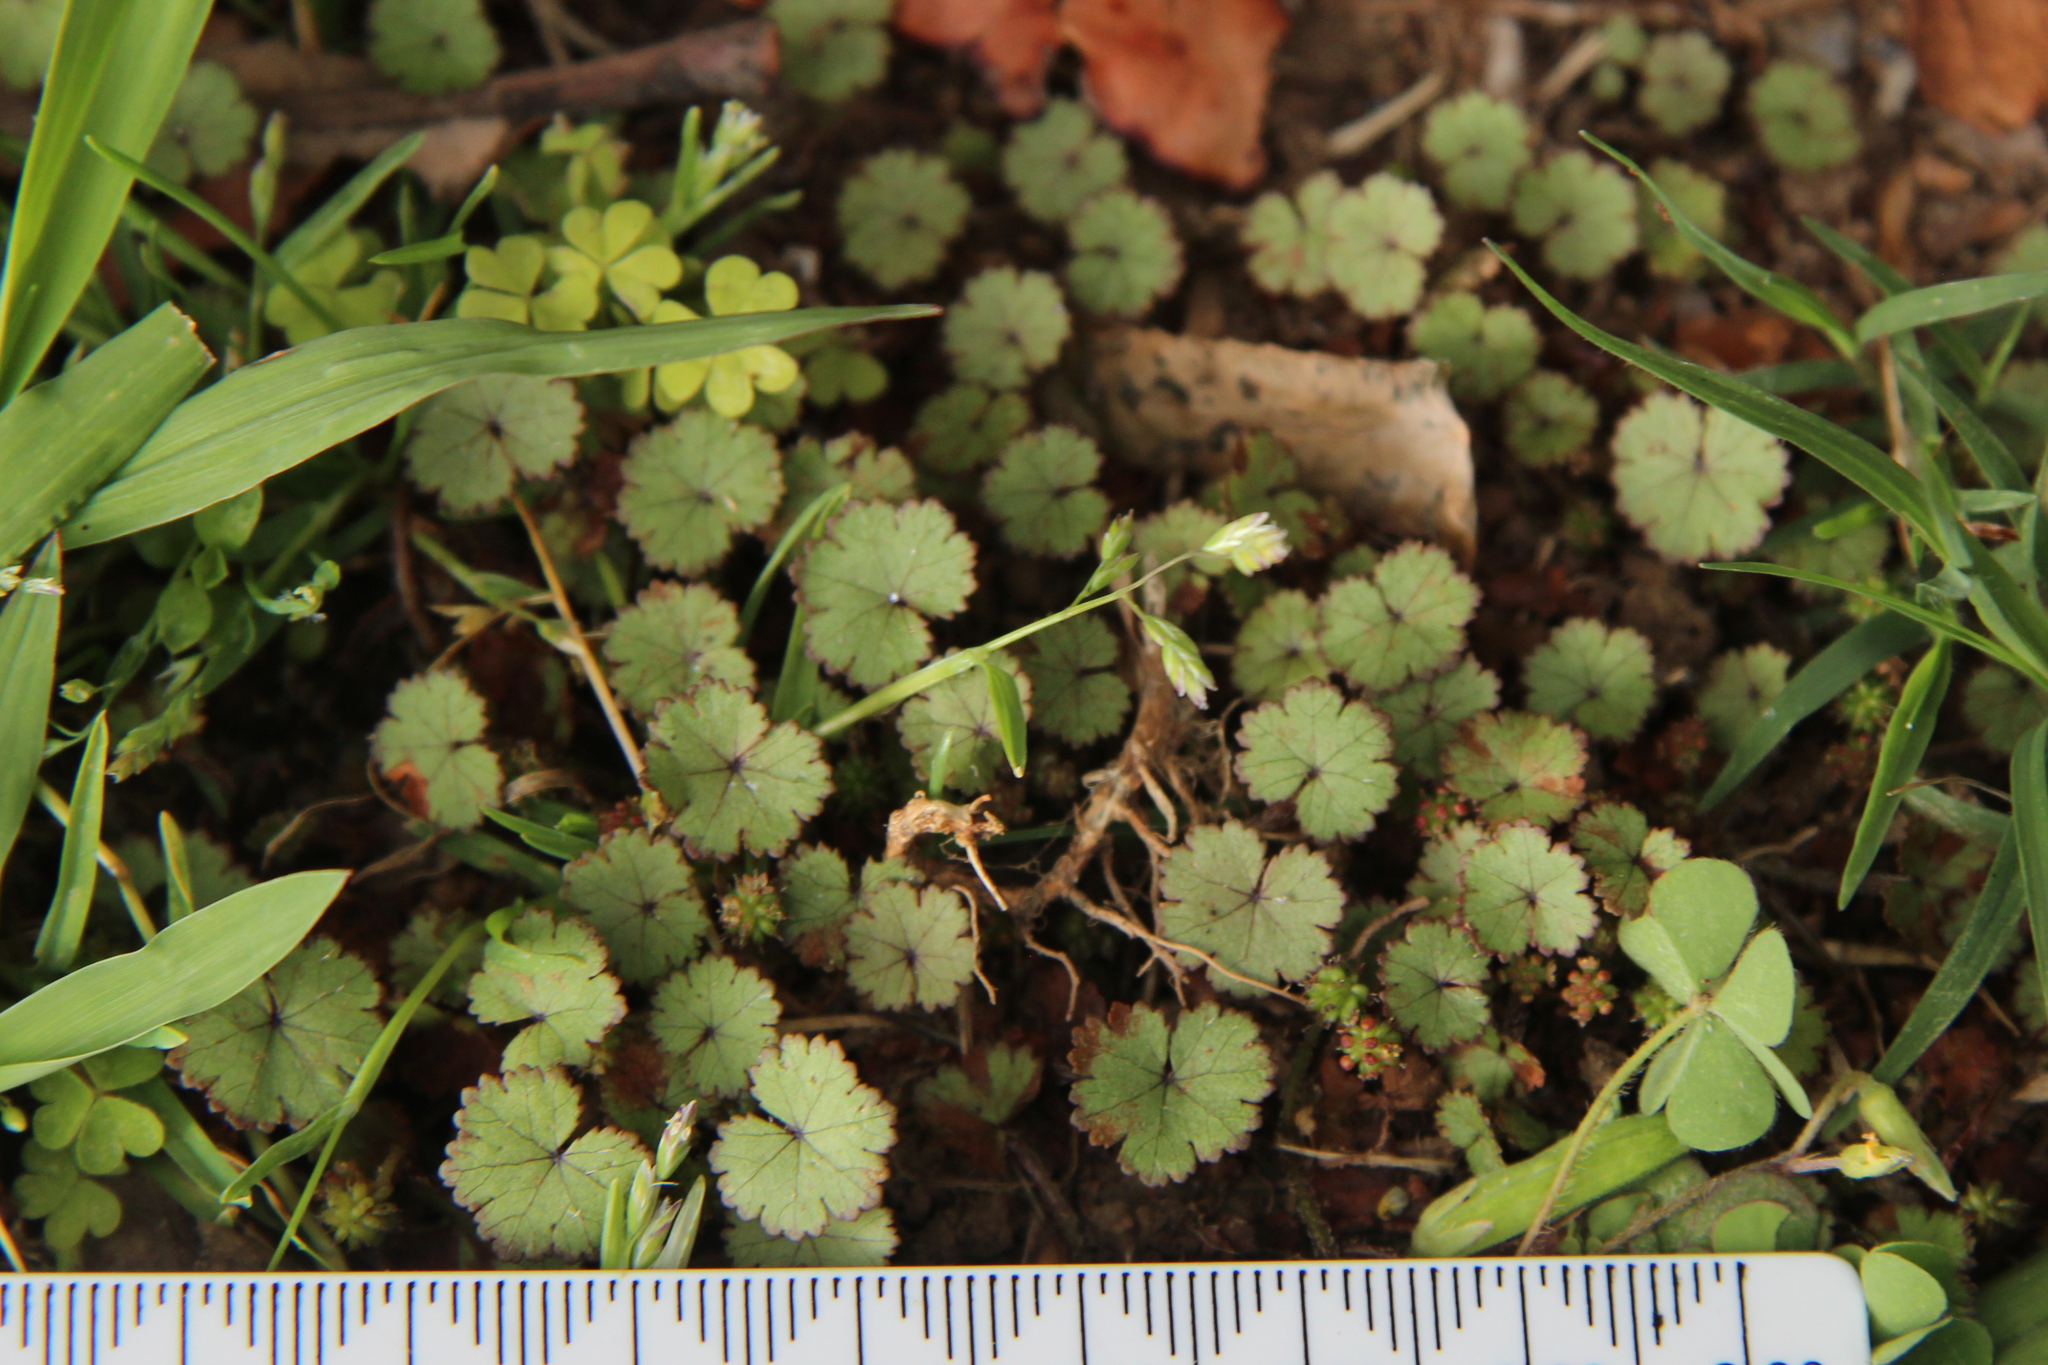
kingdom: Plantae
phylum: Tracheophyta
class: Magnoliopsida
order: Apiales
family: Araliaceae
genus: Hydrocotyle
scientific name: Hydrocotyle moschata
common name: Hairy pennywort
